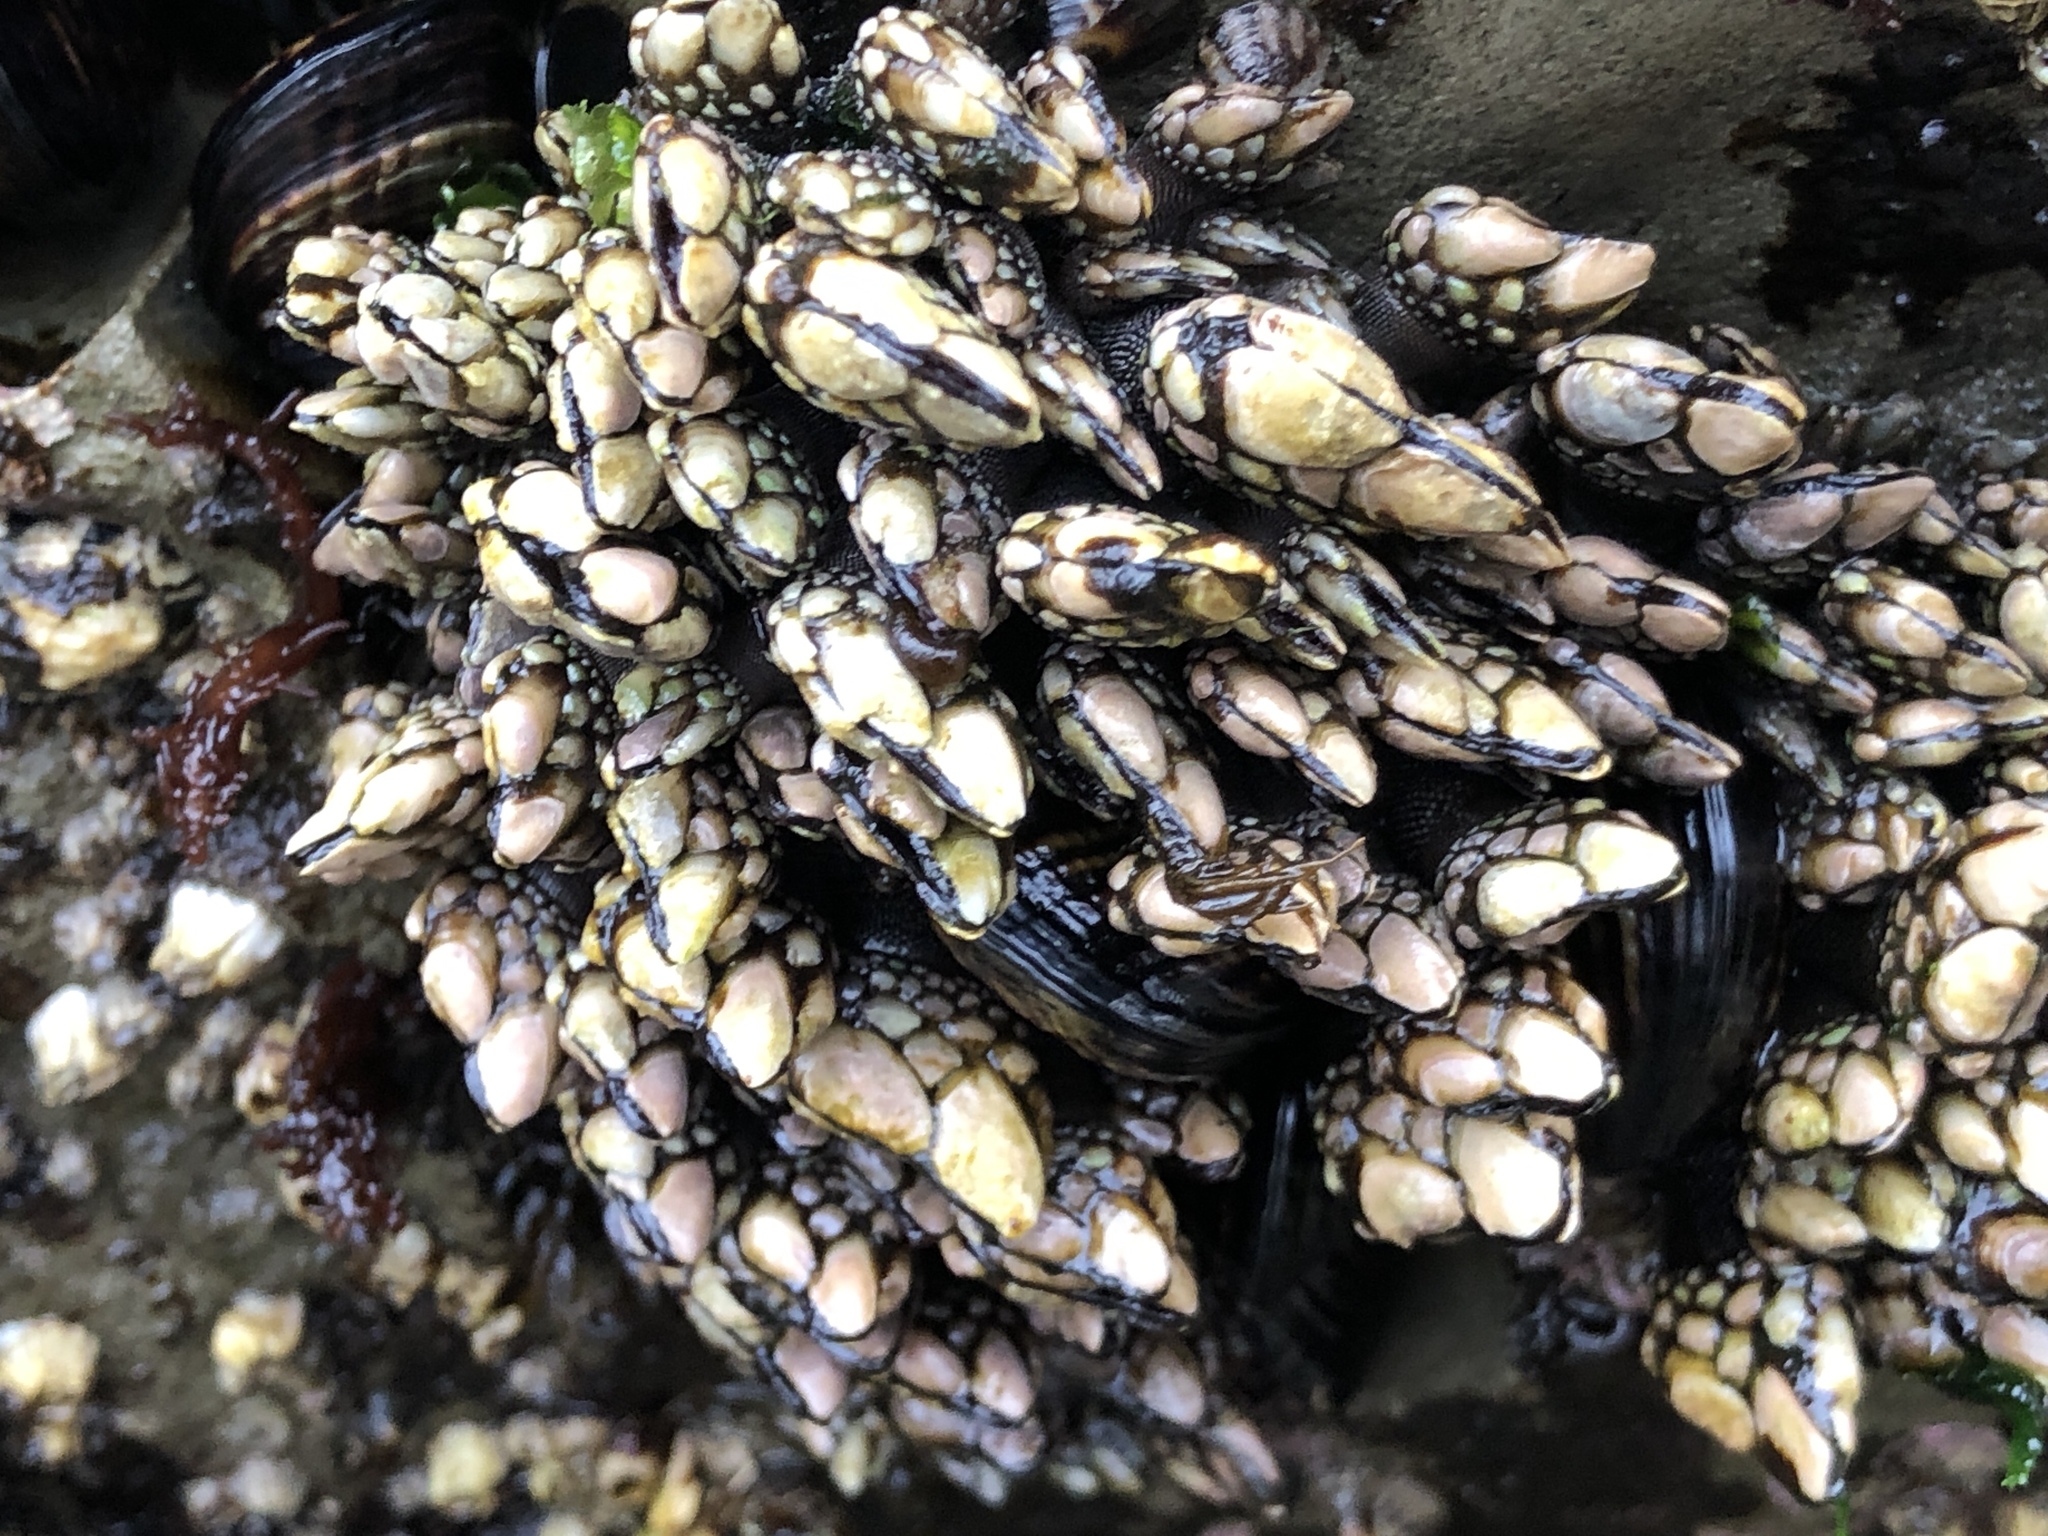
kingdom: Animalia
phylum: Arthropoda
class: Maxillopoda
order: Pedunculata
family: Pollicipedidae
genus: Pollicipes
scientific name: Pollicipes polymerus
